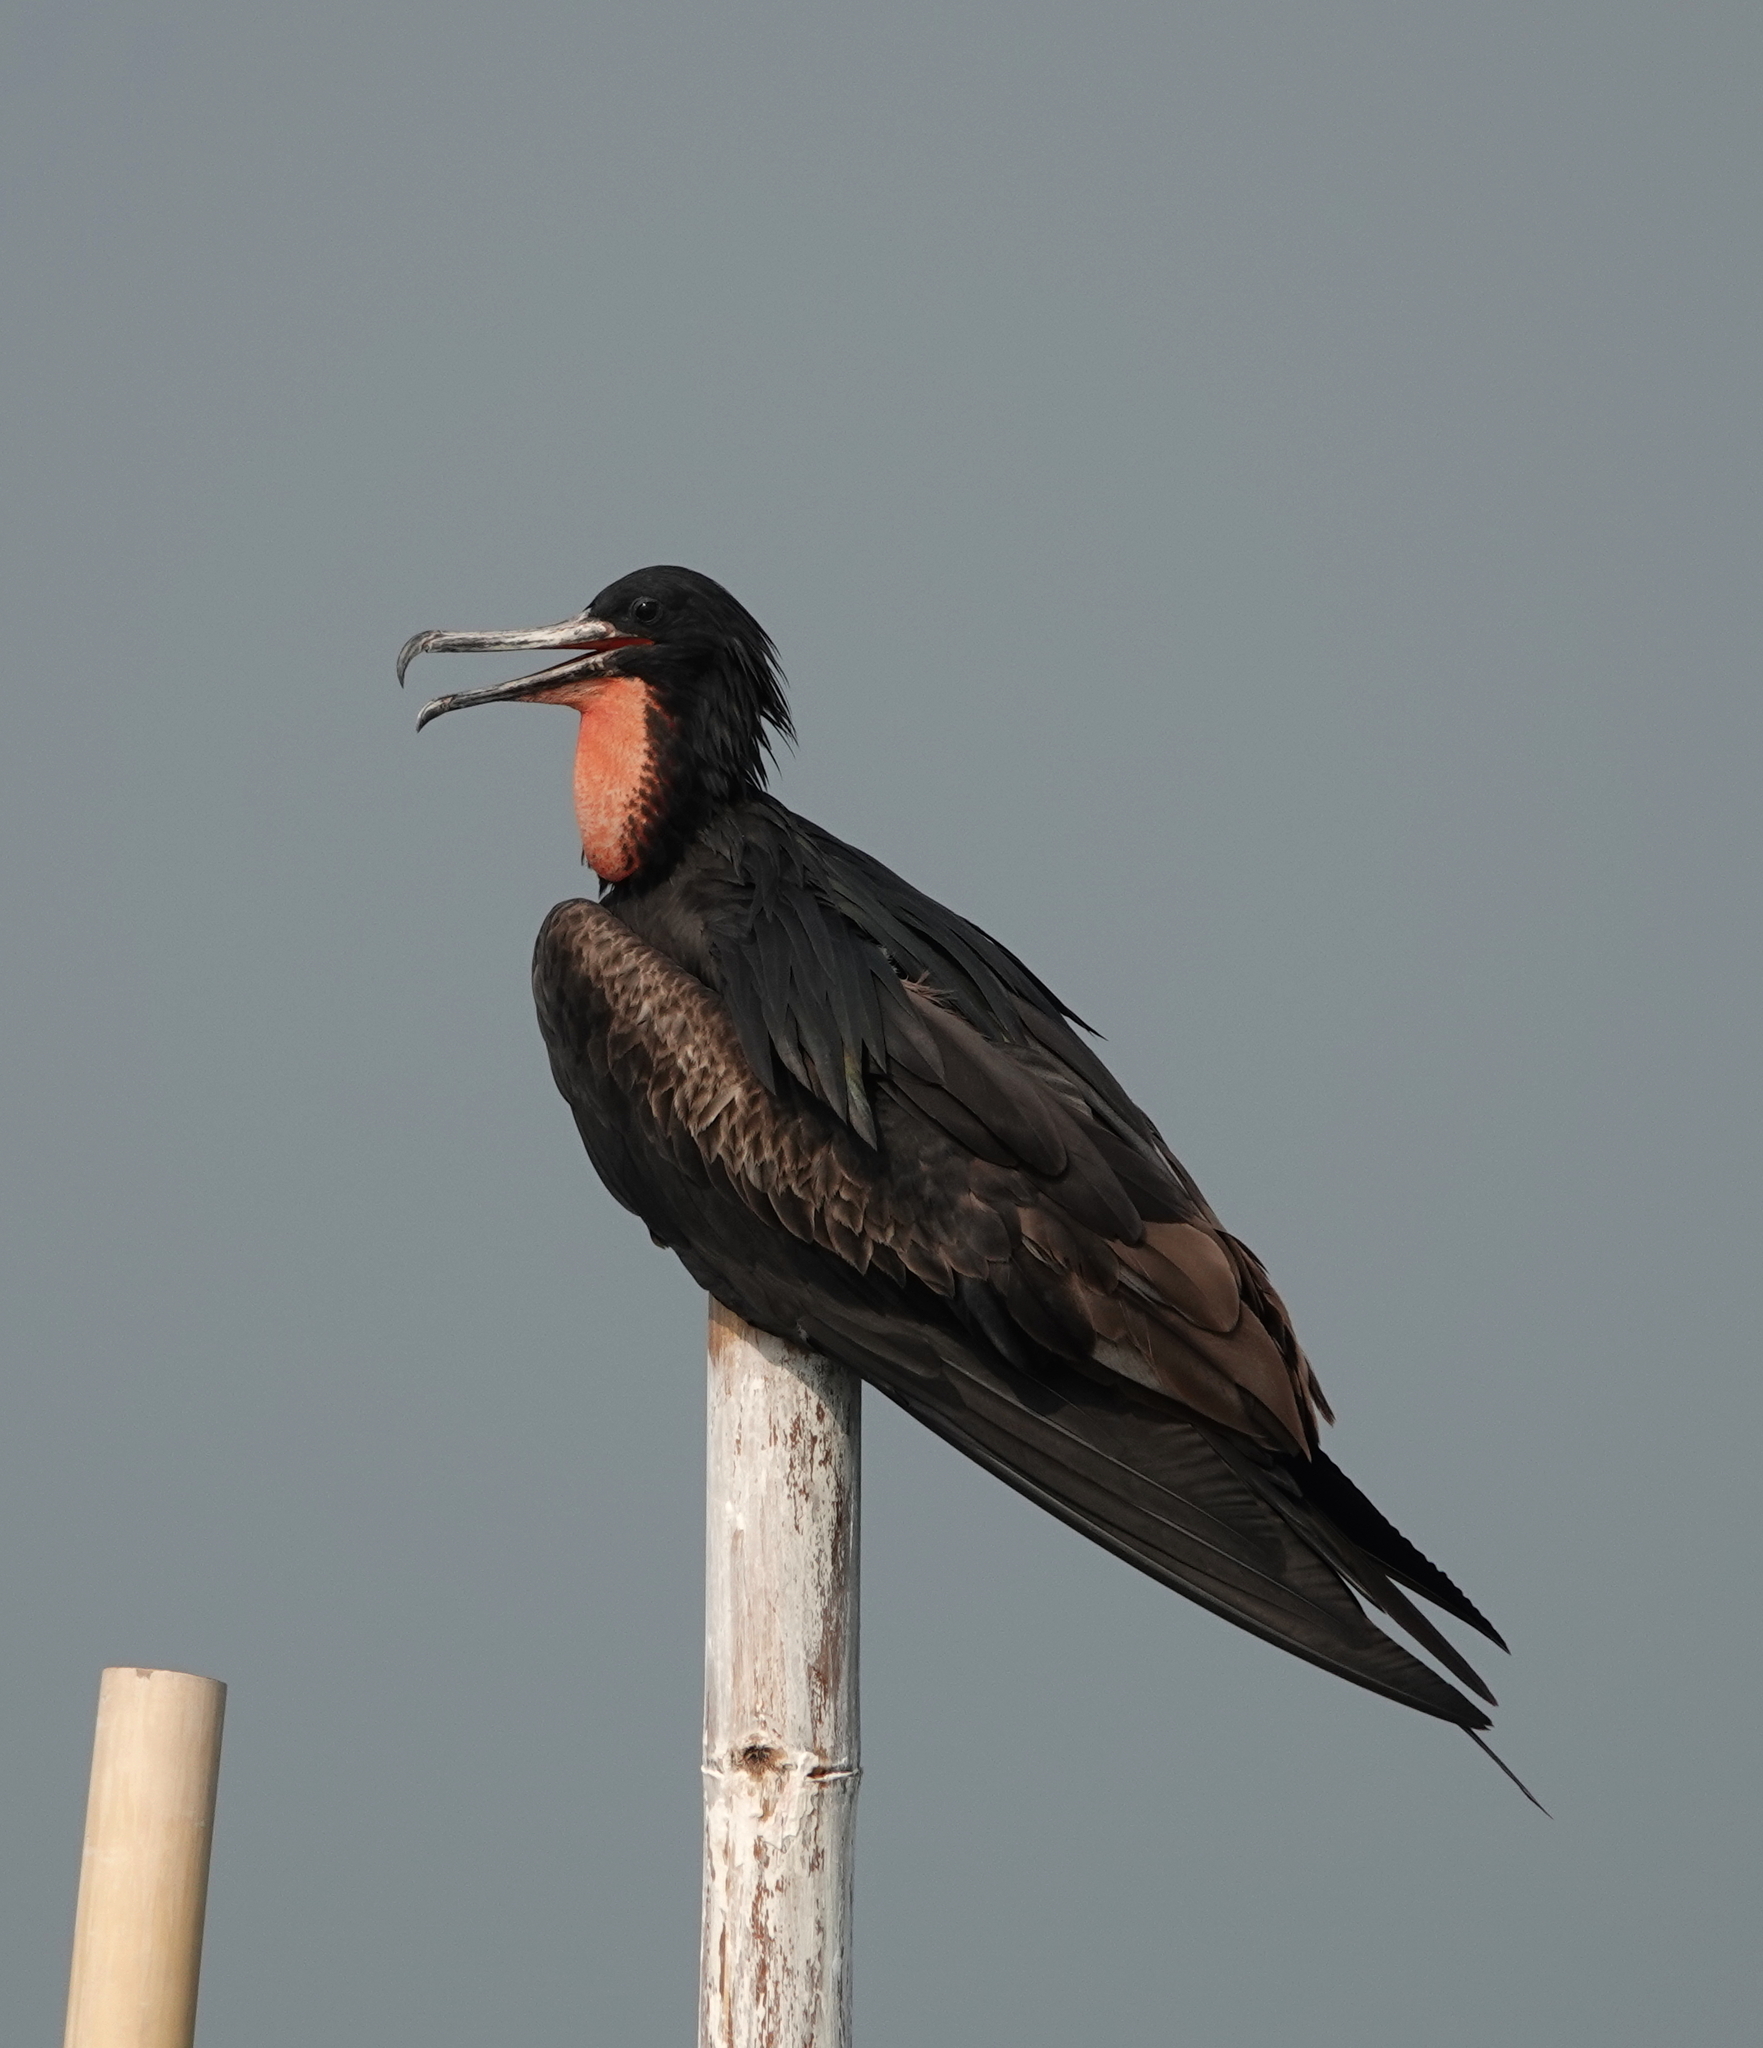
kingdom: Animalia
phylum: Chordata
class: Aves
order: Suliformes
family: Fregatidae
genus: Fregata
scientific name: Fregata andrewsi
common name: Christmas frigatebird
